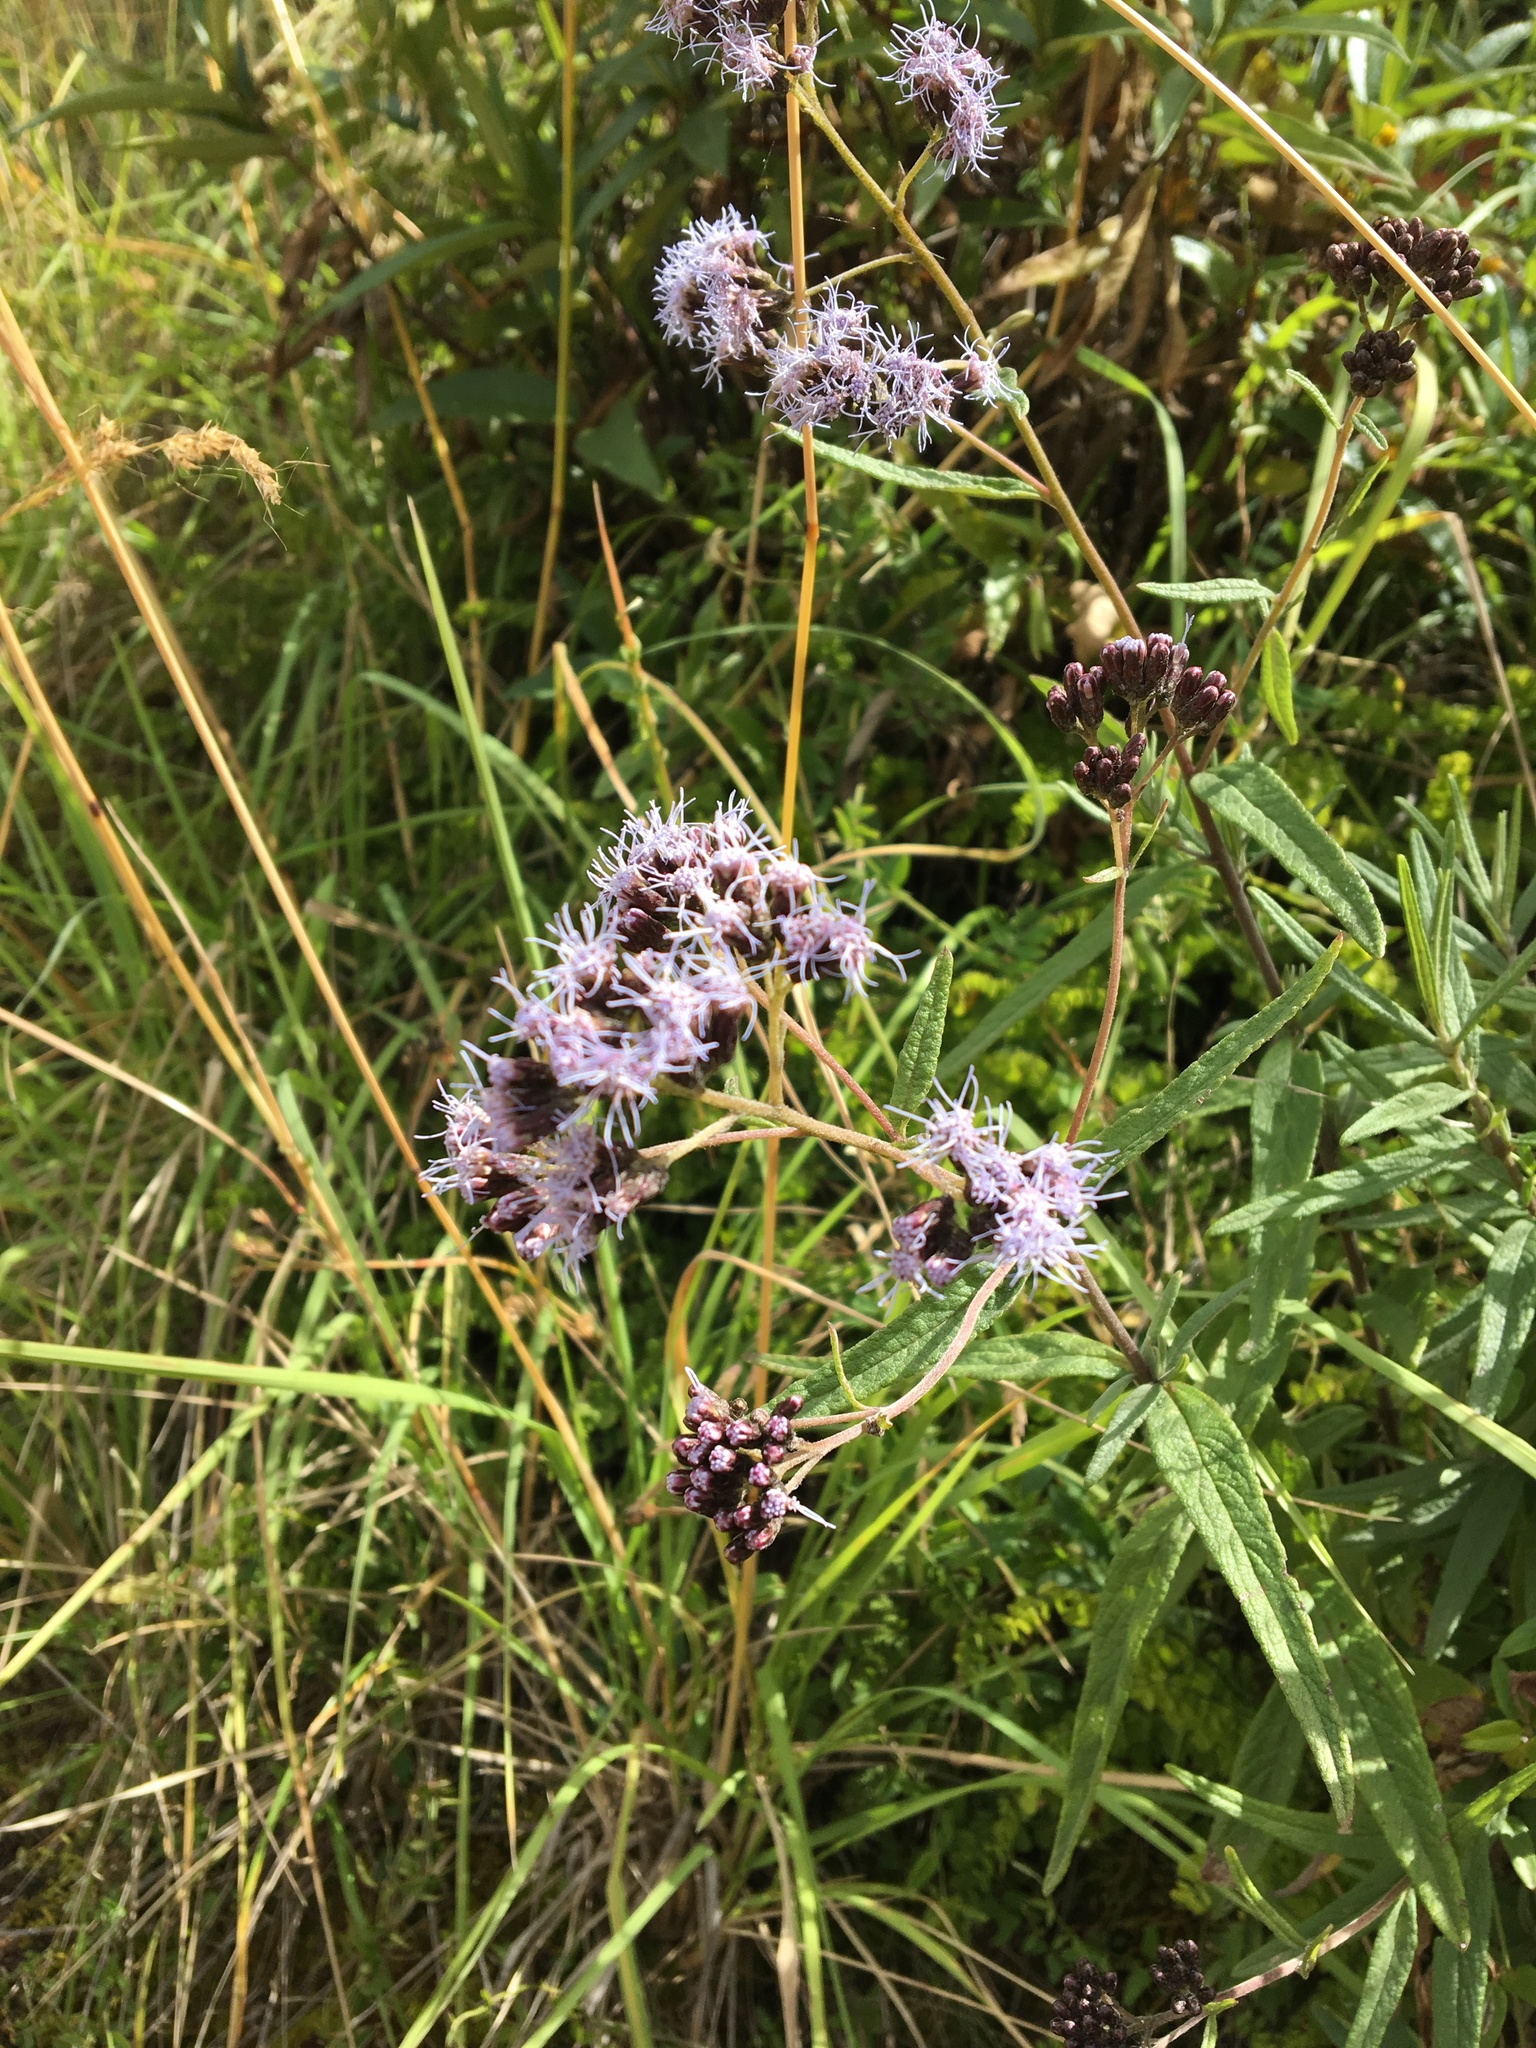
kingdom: Plantae
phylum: Tracheophyta
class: Magnoliopsida
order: Asterales
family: Asteraceae
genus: Aristeguietia
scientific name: Aristeguietia discolor
